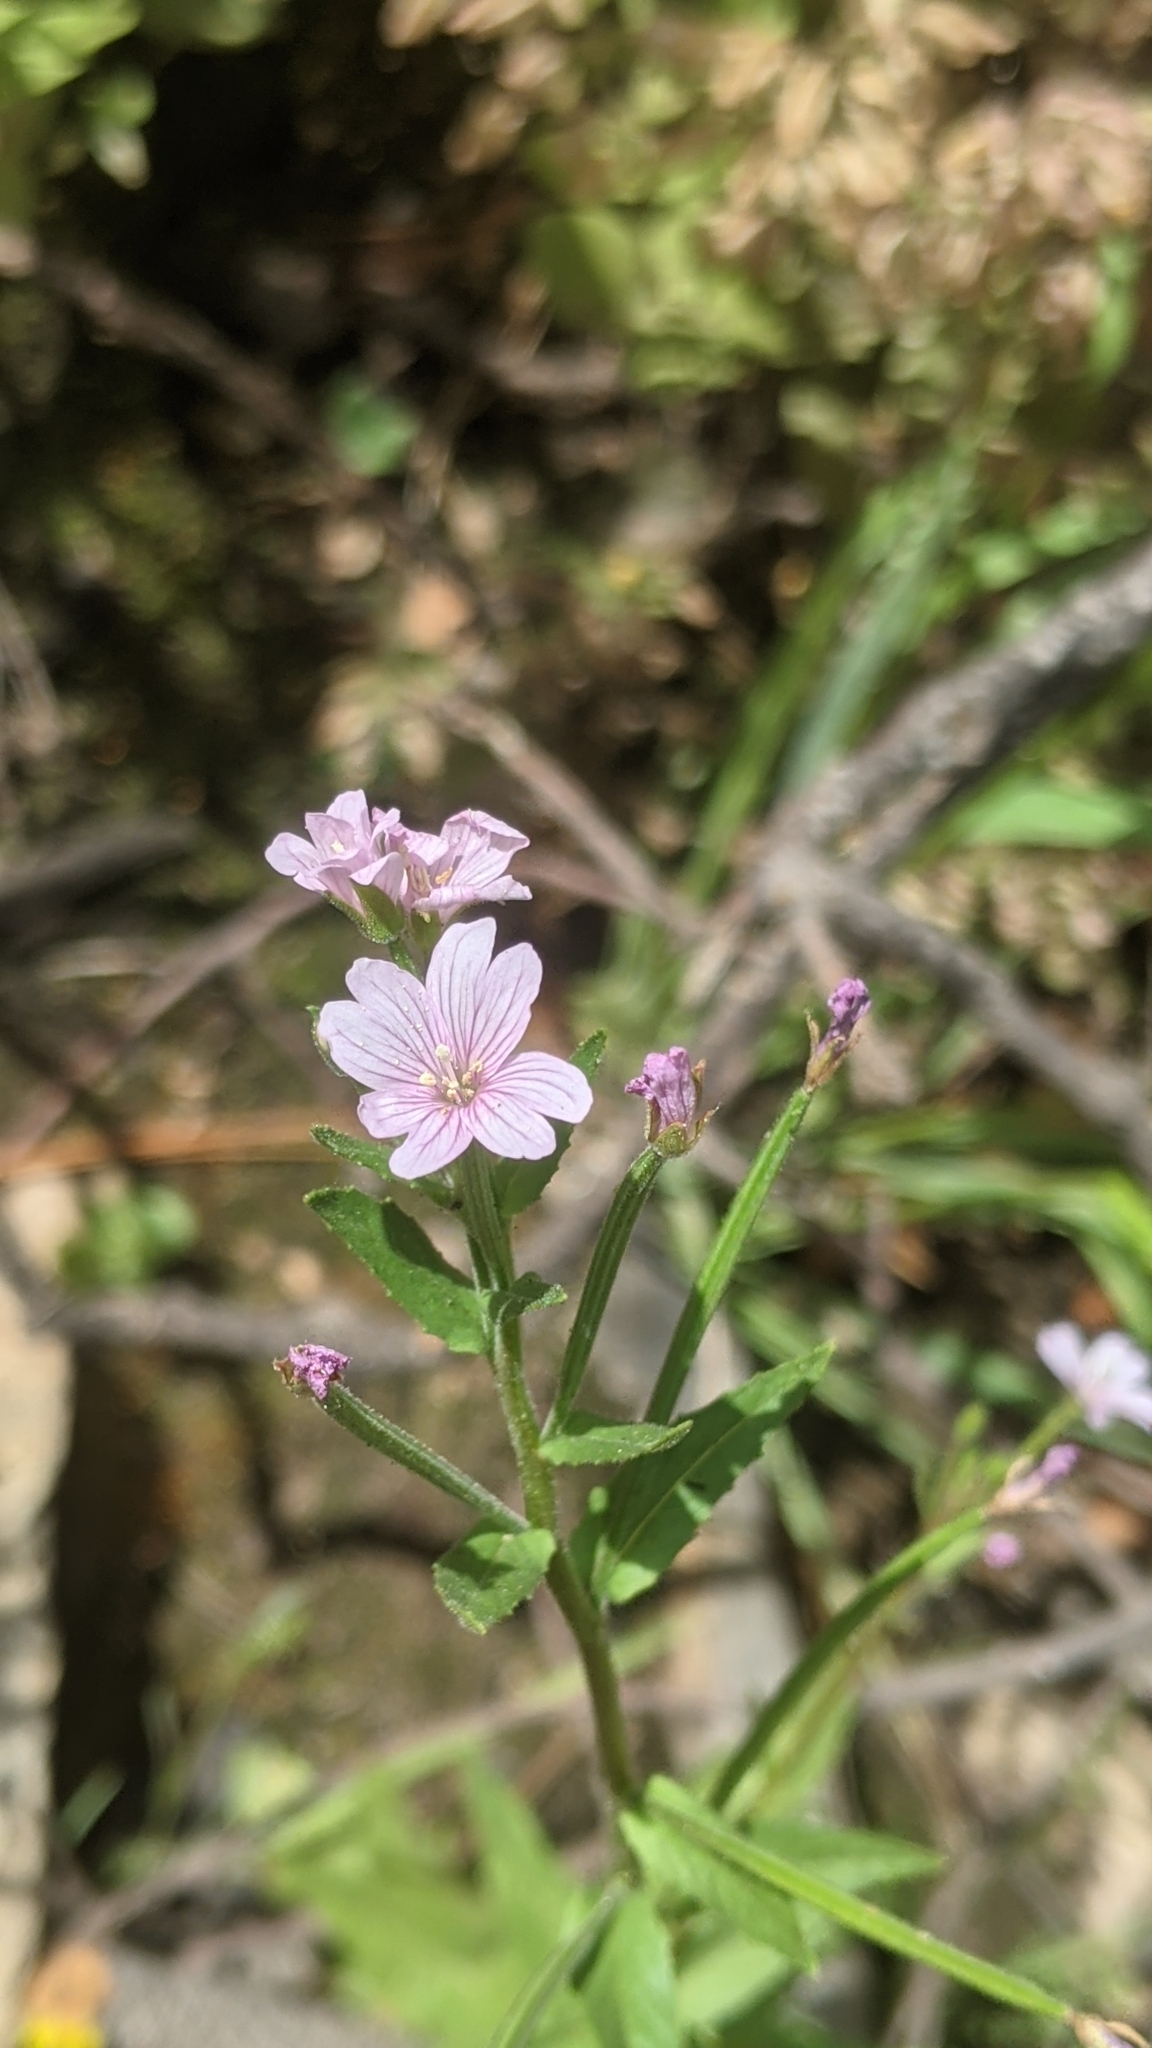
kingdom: Plantae
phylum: Tracheophyta
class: Magnoliopsida
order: Myrtales
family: Onagraceae
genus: Epilobium
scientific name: Epilobium ciliatum
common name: American willowherb
